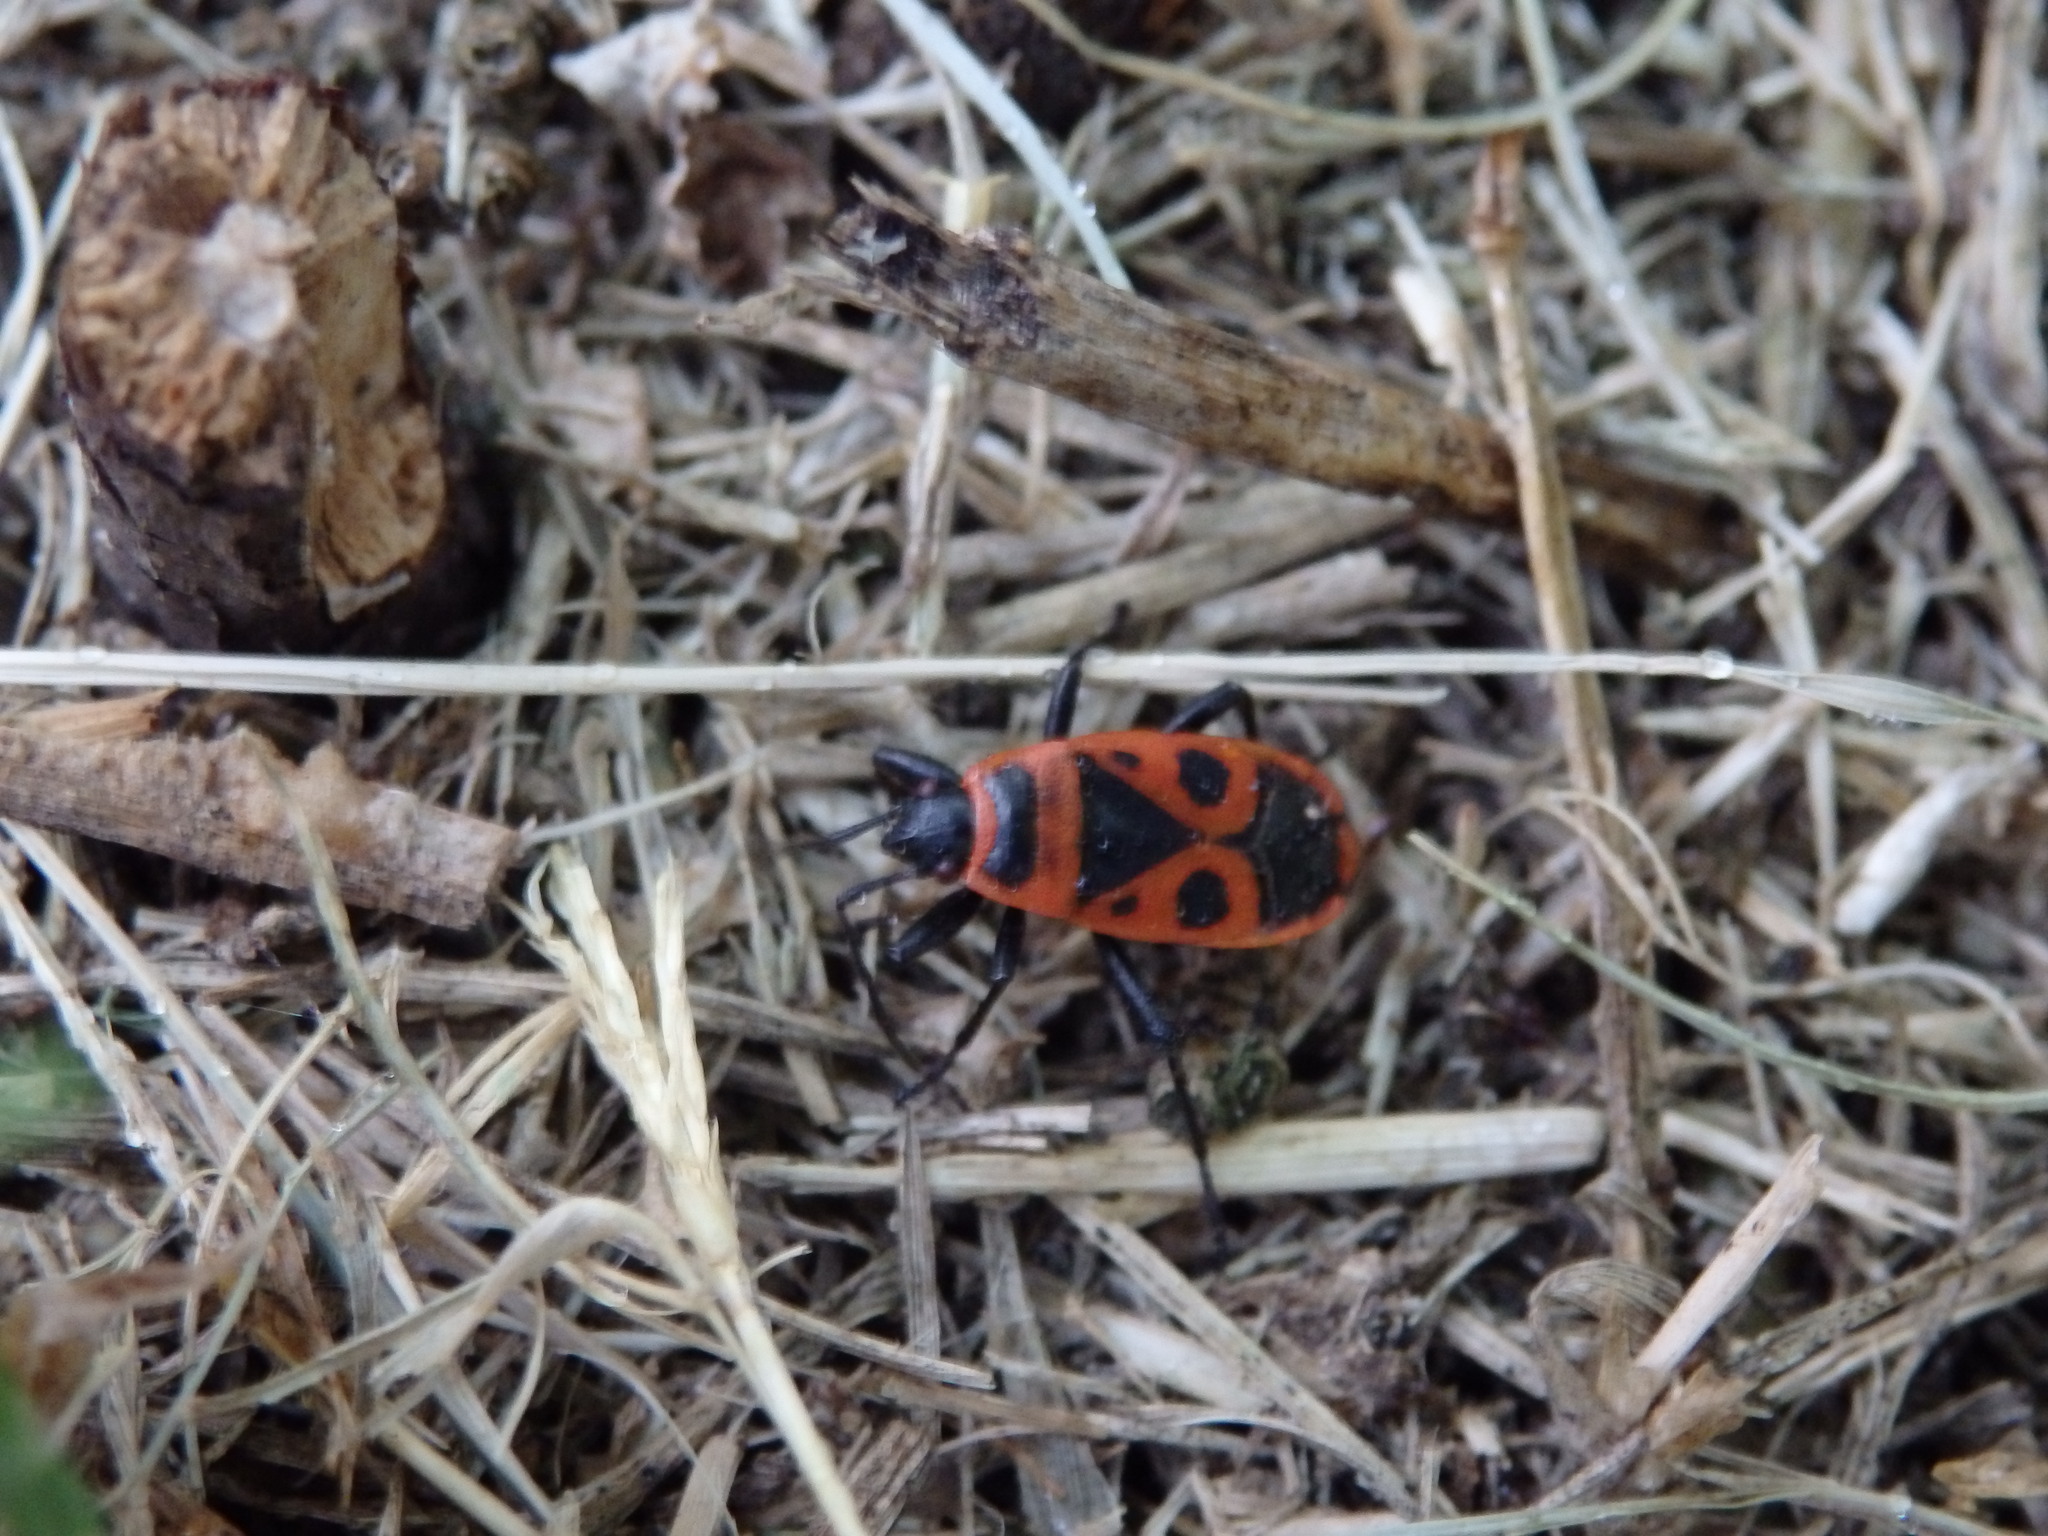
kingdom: Animalia
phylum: Arthropoda
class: Insecta
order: Hemiptera
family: Pyrrhocoridae
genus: Pyrrhocoris
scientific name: Pyrrhocoris apterus
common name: Firebug
